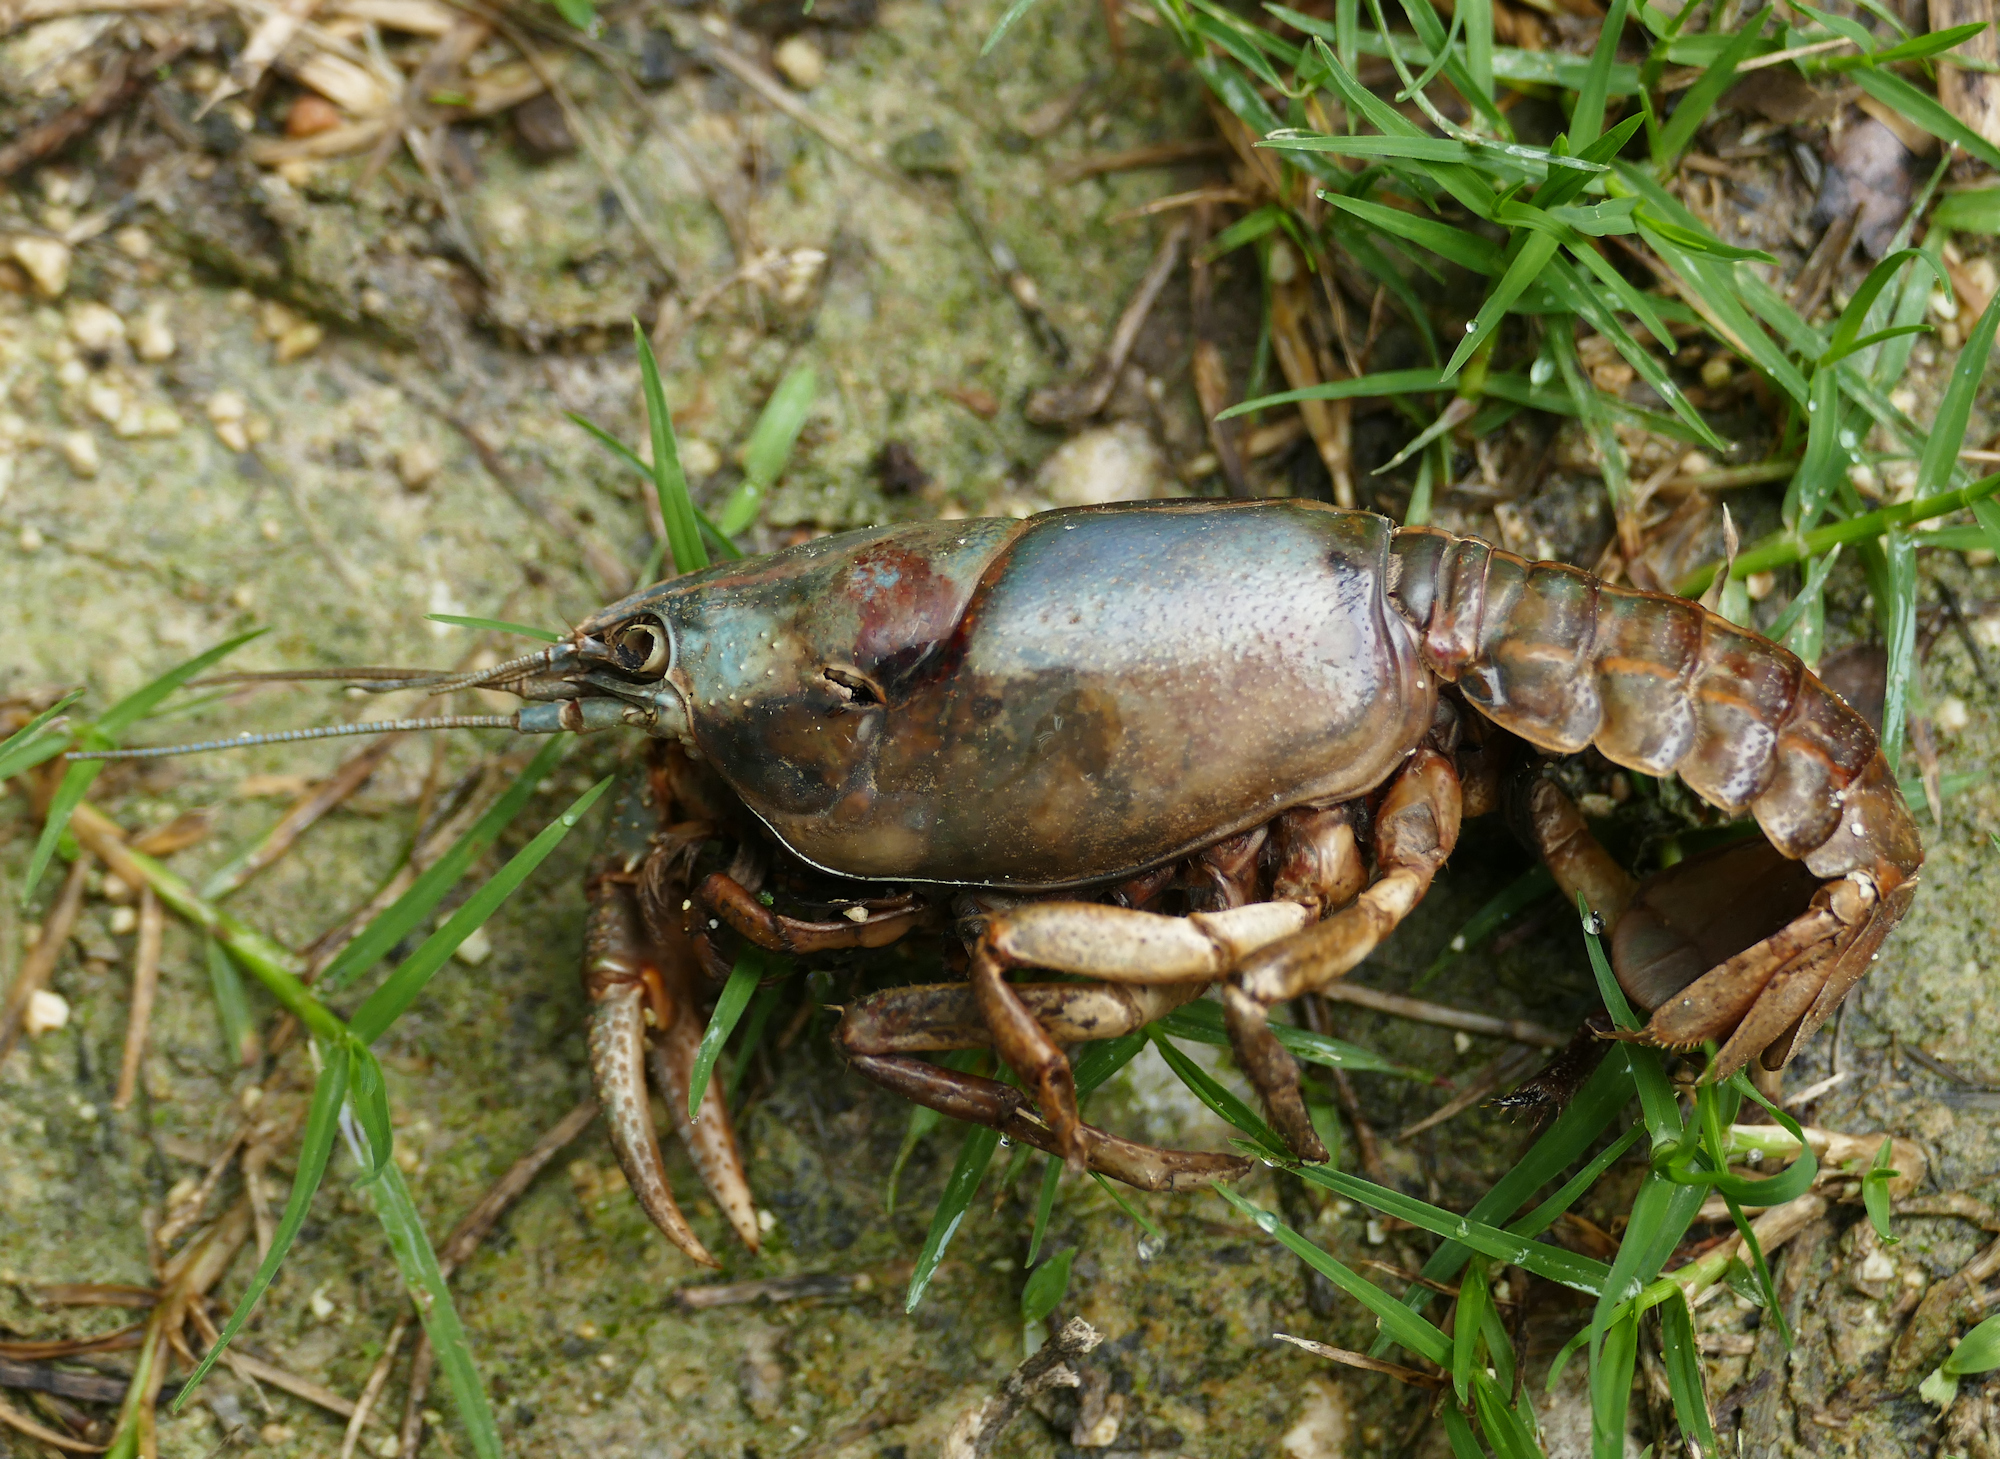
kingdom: Animalia
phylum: Arthropoda
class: Malacostraca
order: Decapoda
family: Cambaridae
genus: Lacunicambarus
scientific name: Lacunicambarus ludovicianus
